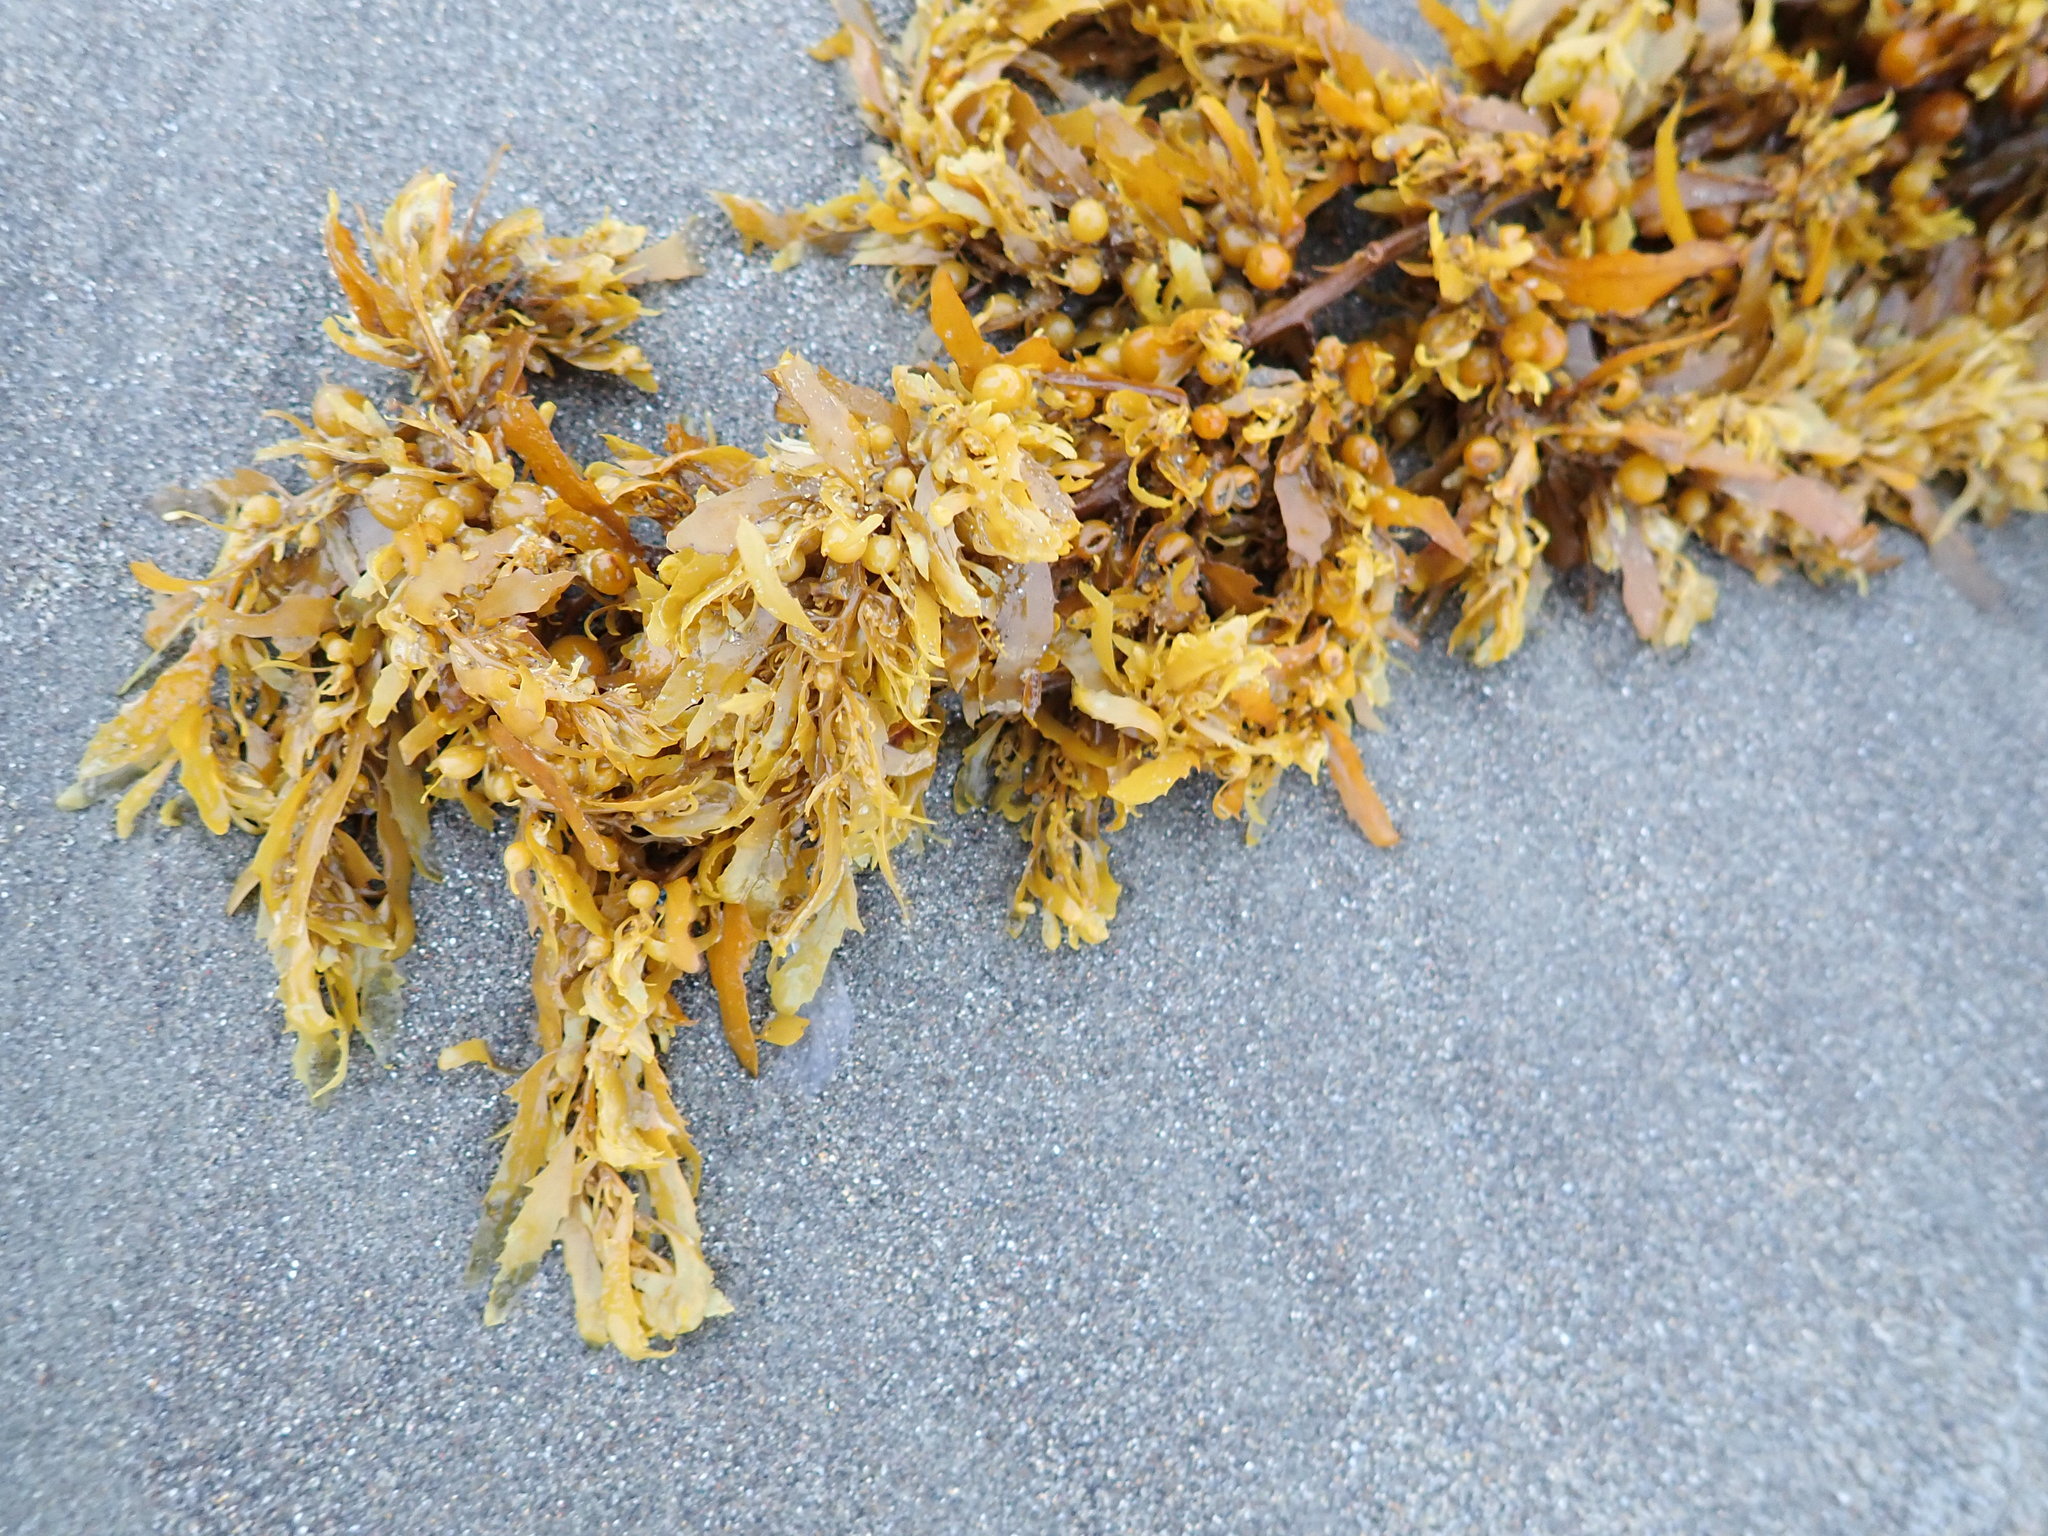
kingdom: Chromista
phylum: Ochrophyta
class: Phaeophyceae
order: Fucales
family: Sargassaceae
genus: Sargassum
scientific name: Sargassum sinclairii
